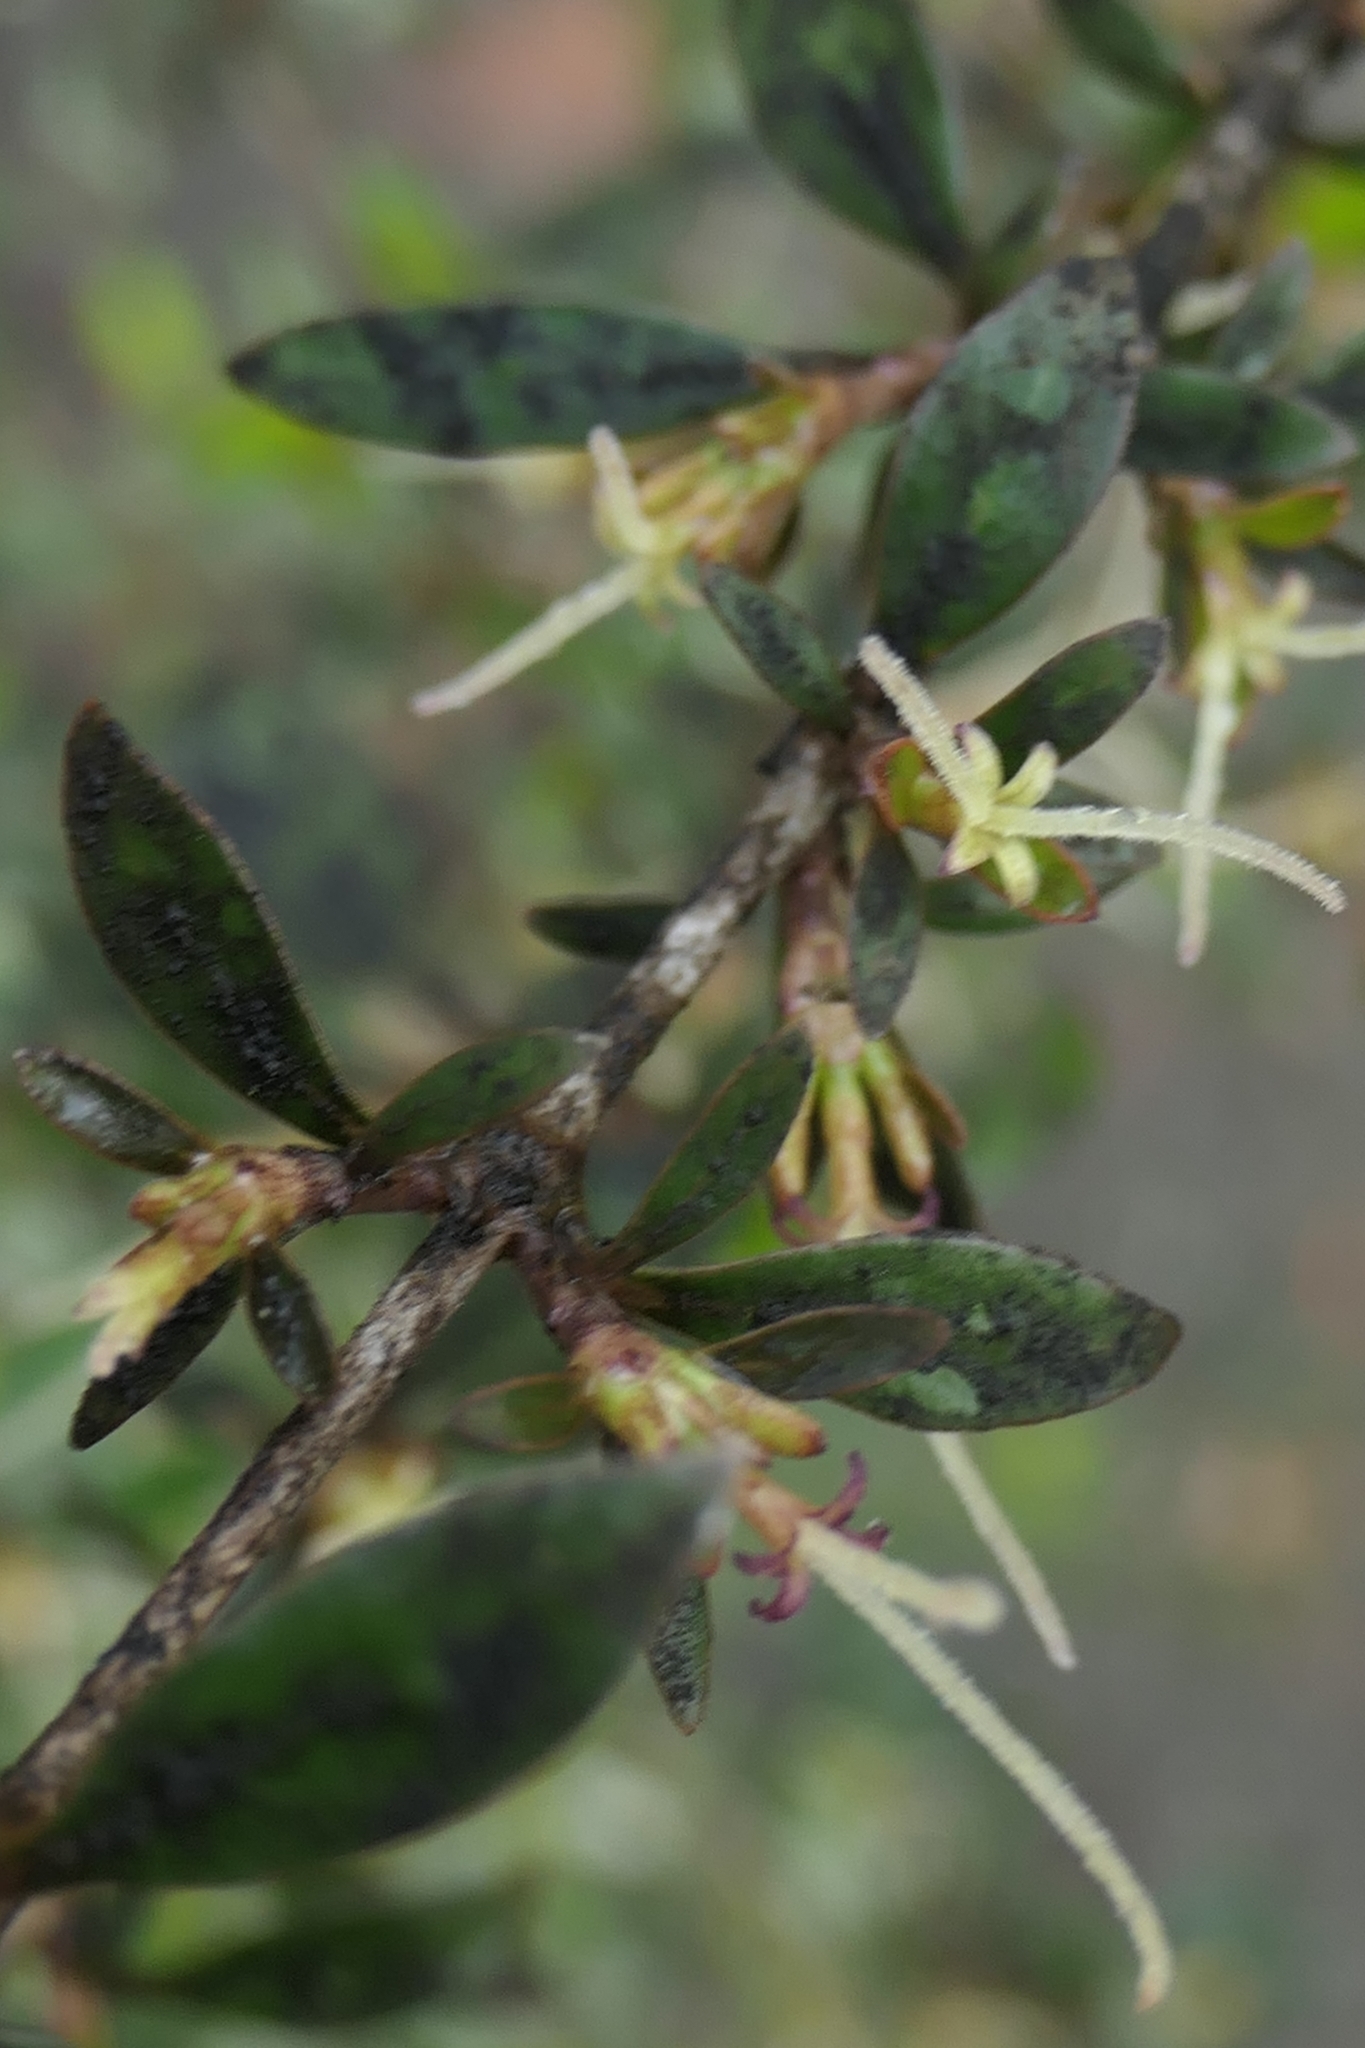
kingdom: Plantae
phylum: Tracheophyta
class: Magnoliopsida
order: Gentianales
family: Rubiaceae
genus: Coprosma
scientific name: Coprosma cunninghamii
